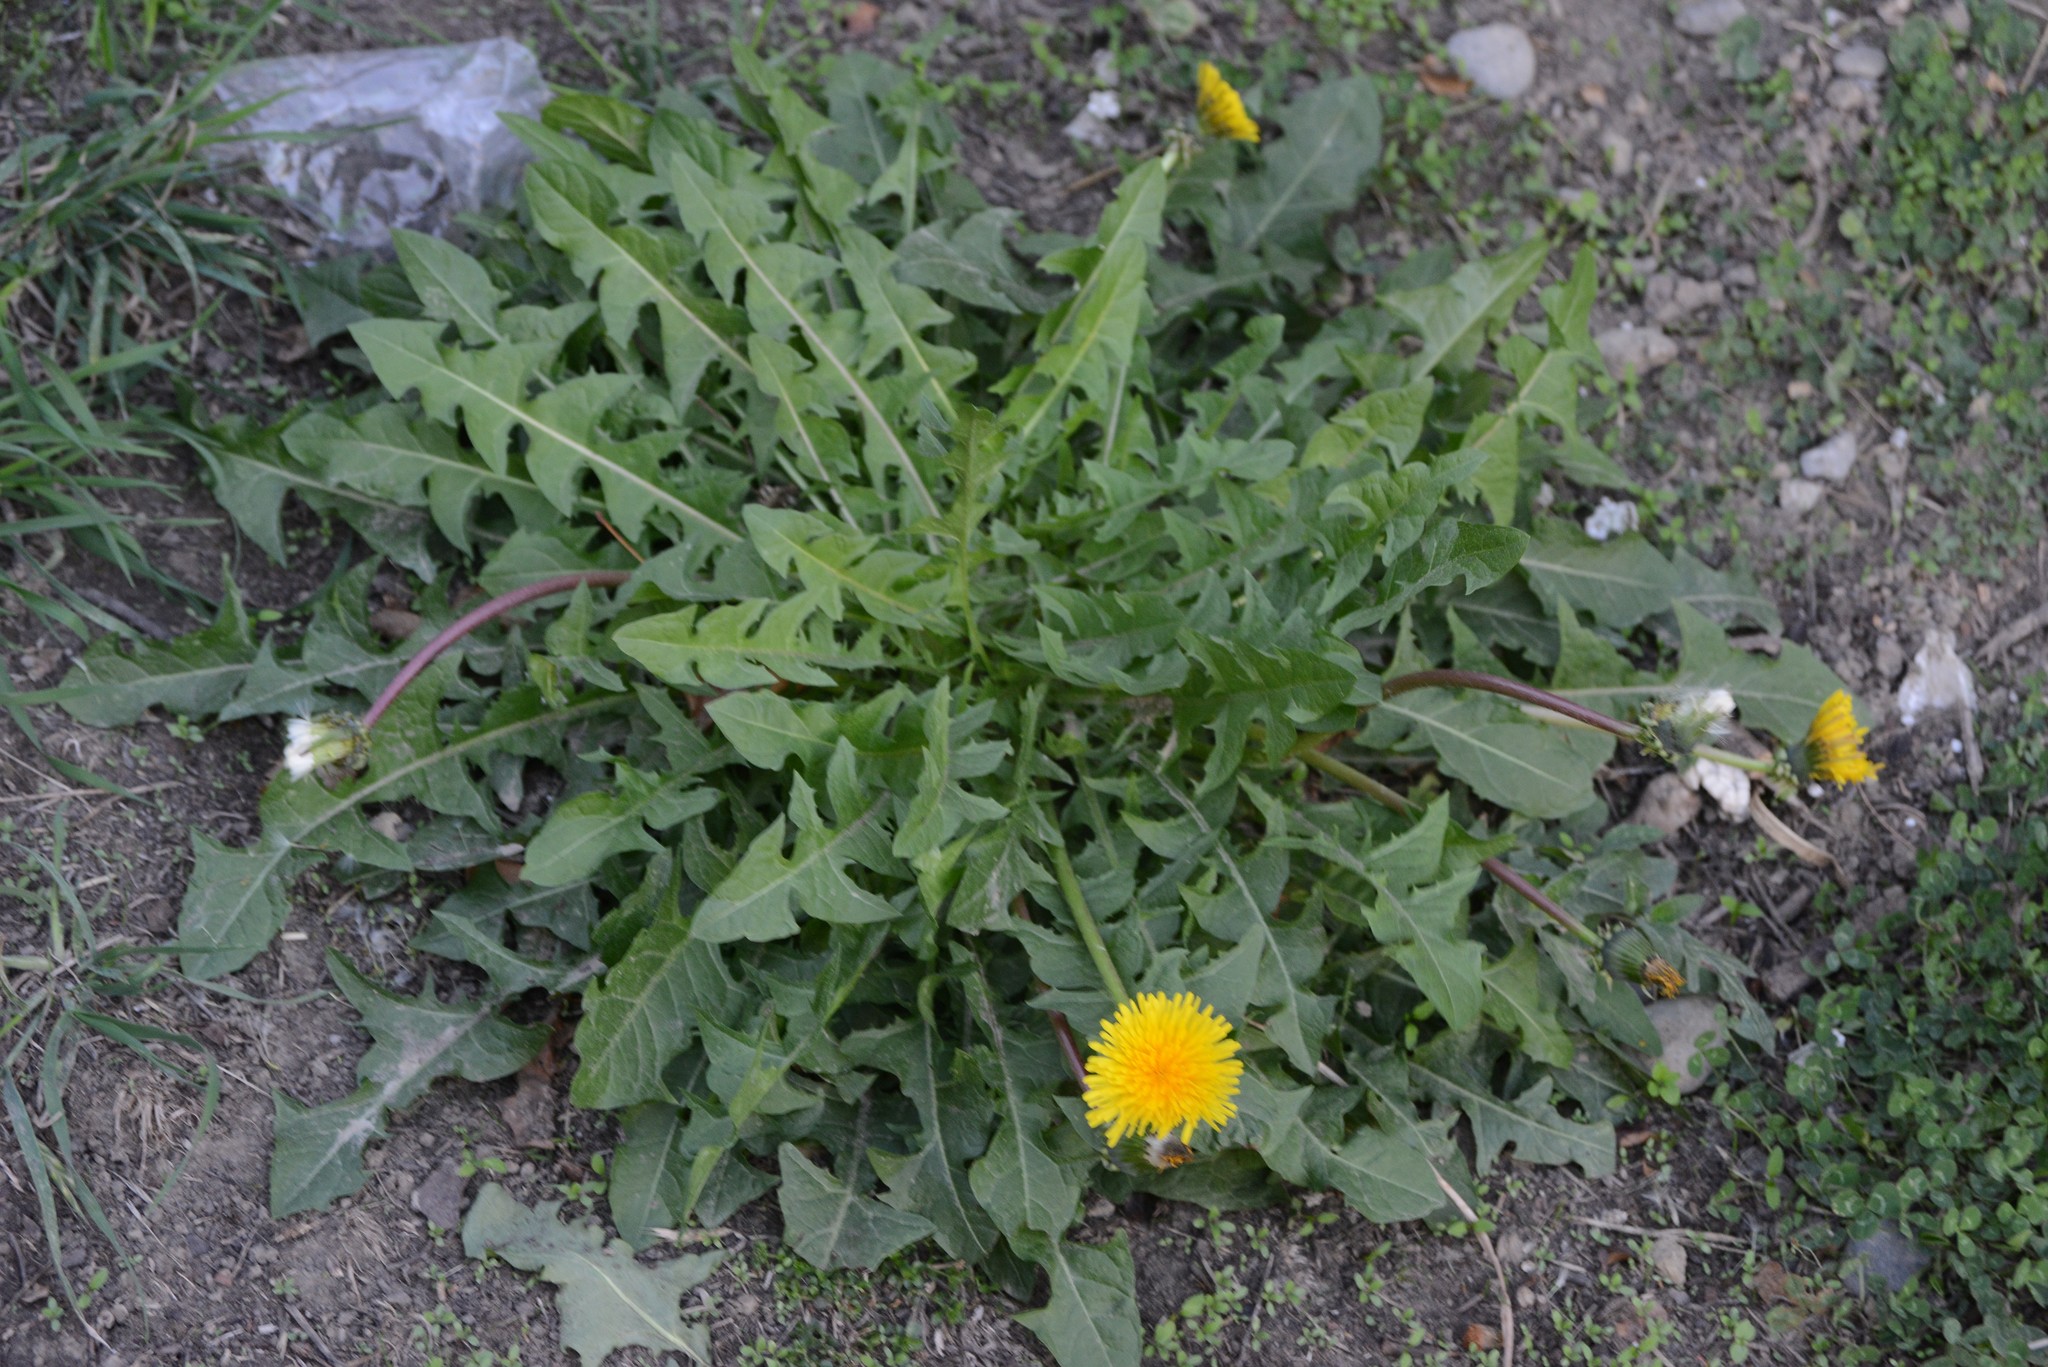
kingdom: Plantae
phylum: Tracheophyta
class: Magnoliopsida
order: Asterales
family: Asteraceae
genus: Taraxacum
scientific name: Taraxacum officinale
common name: Common dandelion
